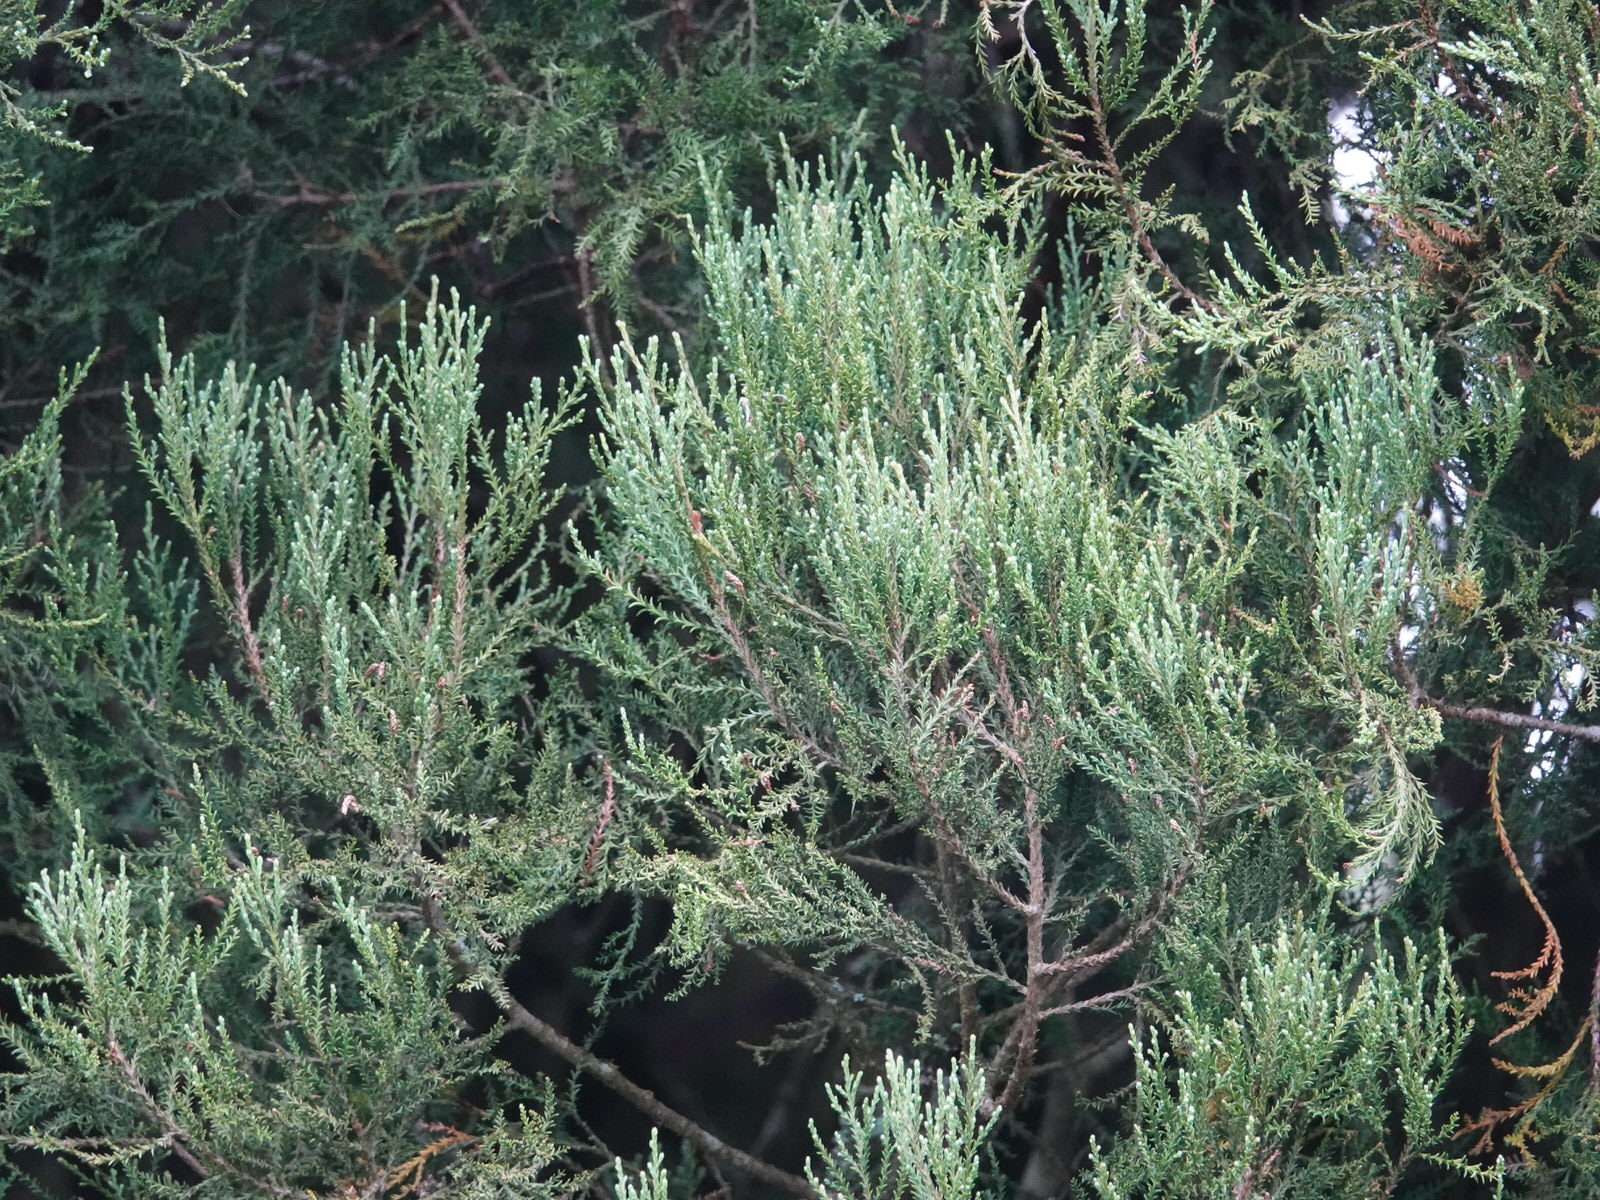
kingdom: Plantae
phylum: Tracheophyta
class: Pinopsida
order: Pinales
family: Podocarpaceae
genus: Dacrycarpus
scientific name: Dacrycarpus dacrydioides
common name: White pine
